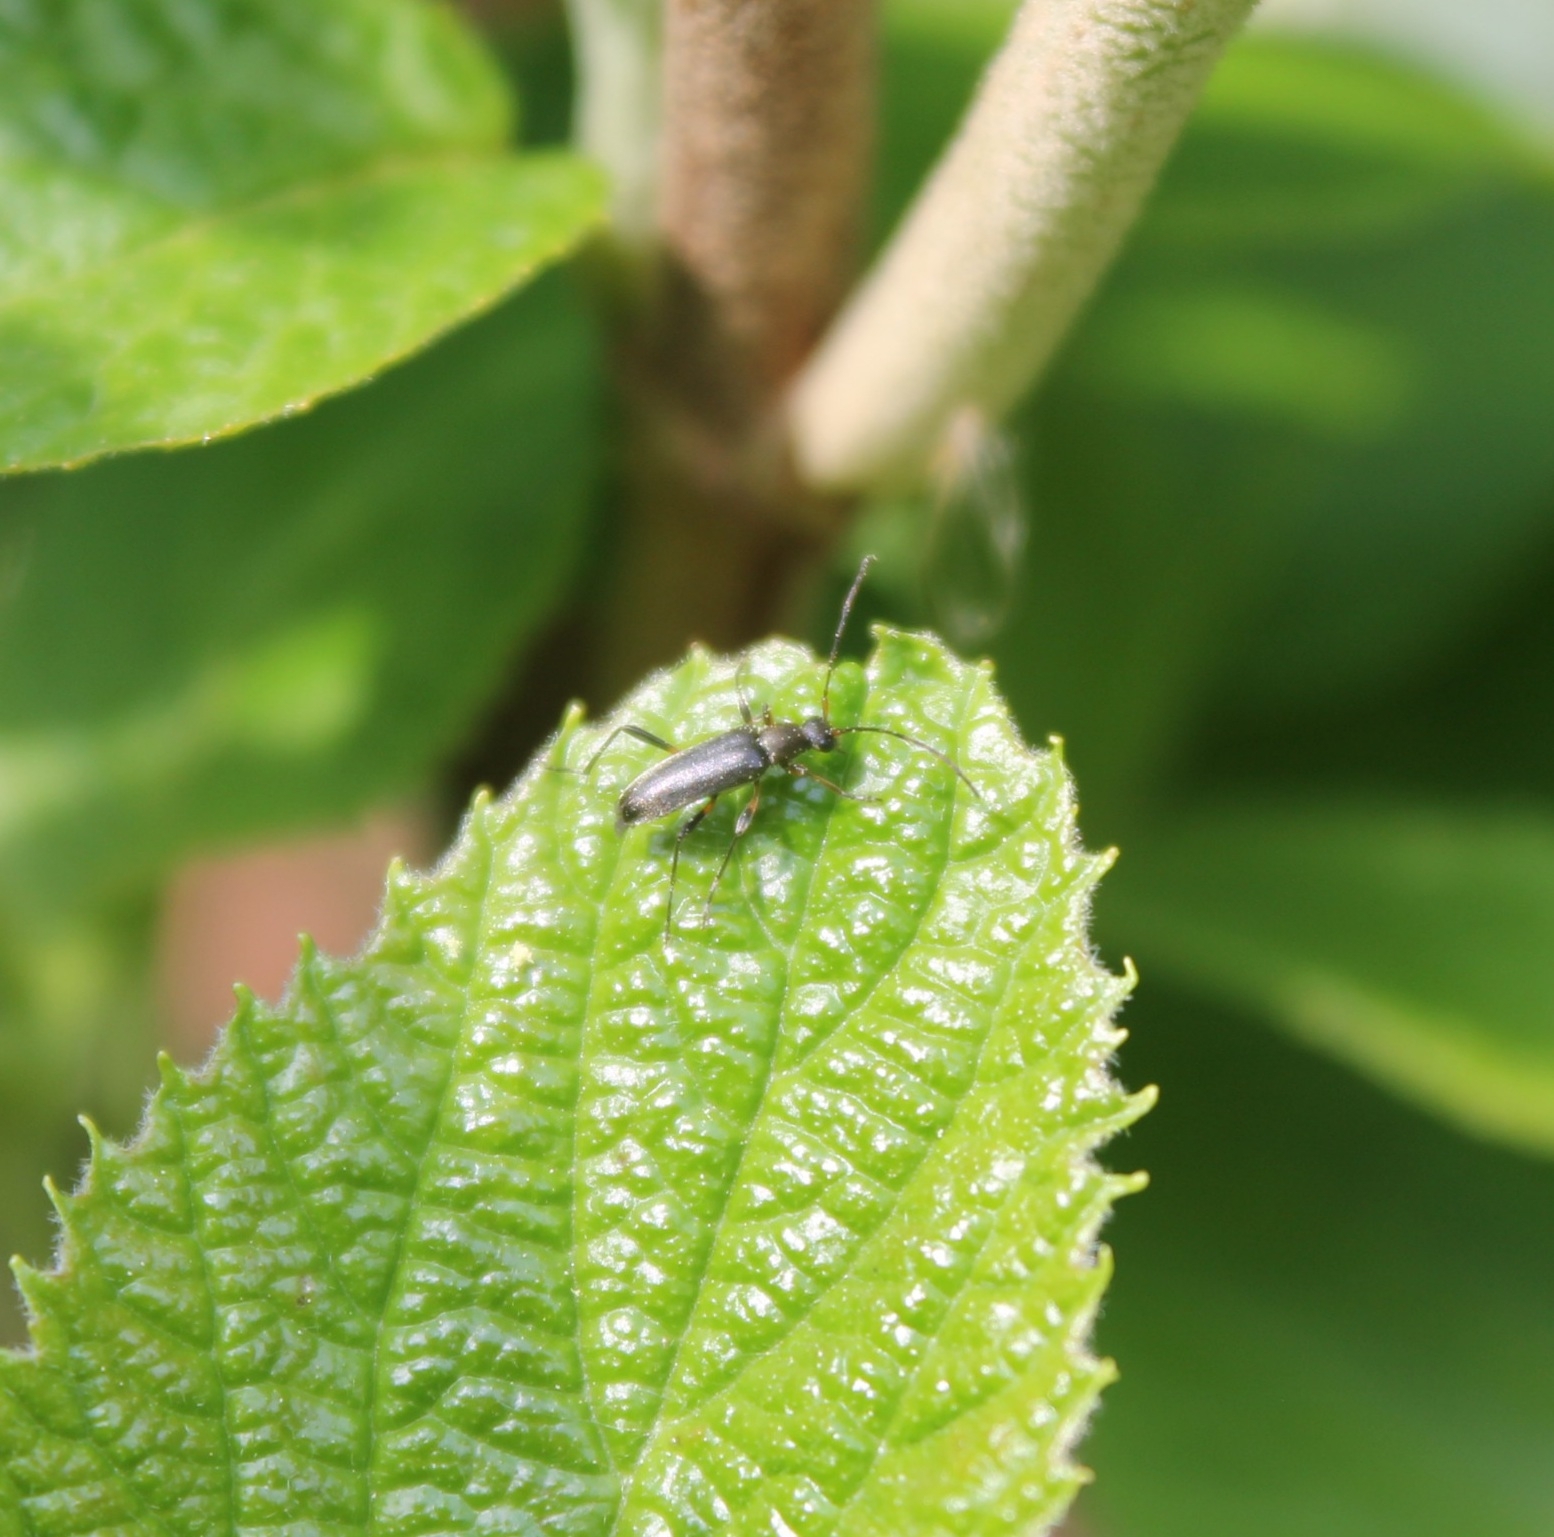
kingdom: Animalia
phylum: Arthropoda
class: Insecta
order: Coleoptera
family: Cerambycidae
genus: Grammoptera
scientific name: Grammoptera ruficornis
